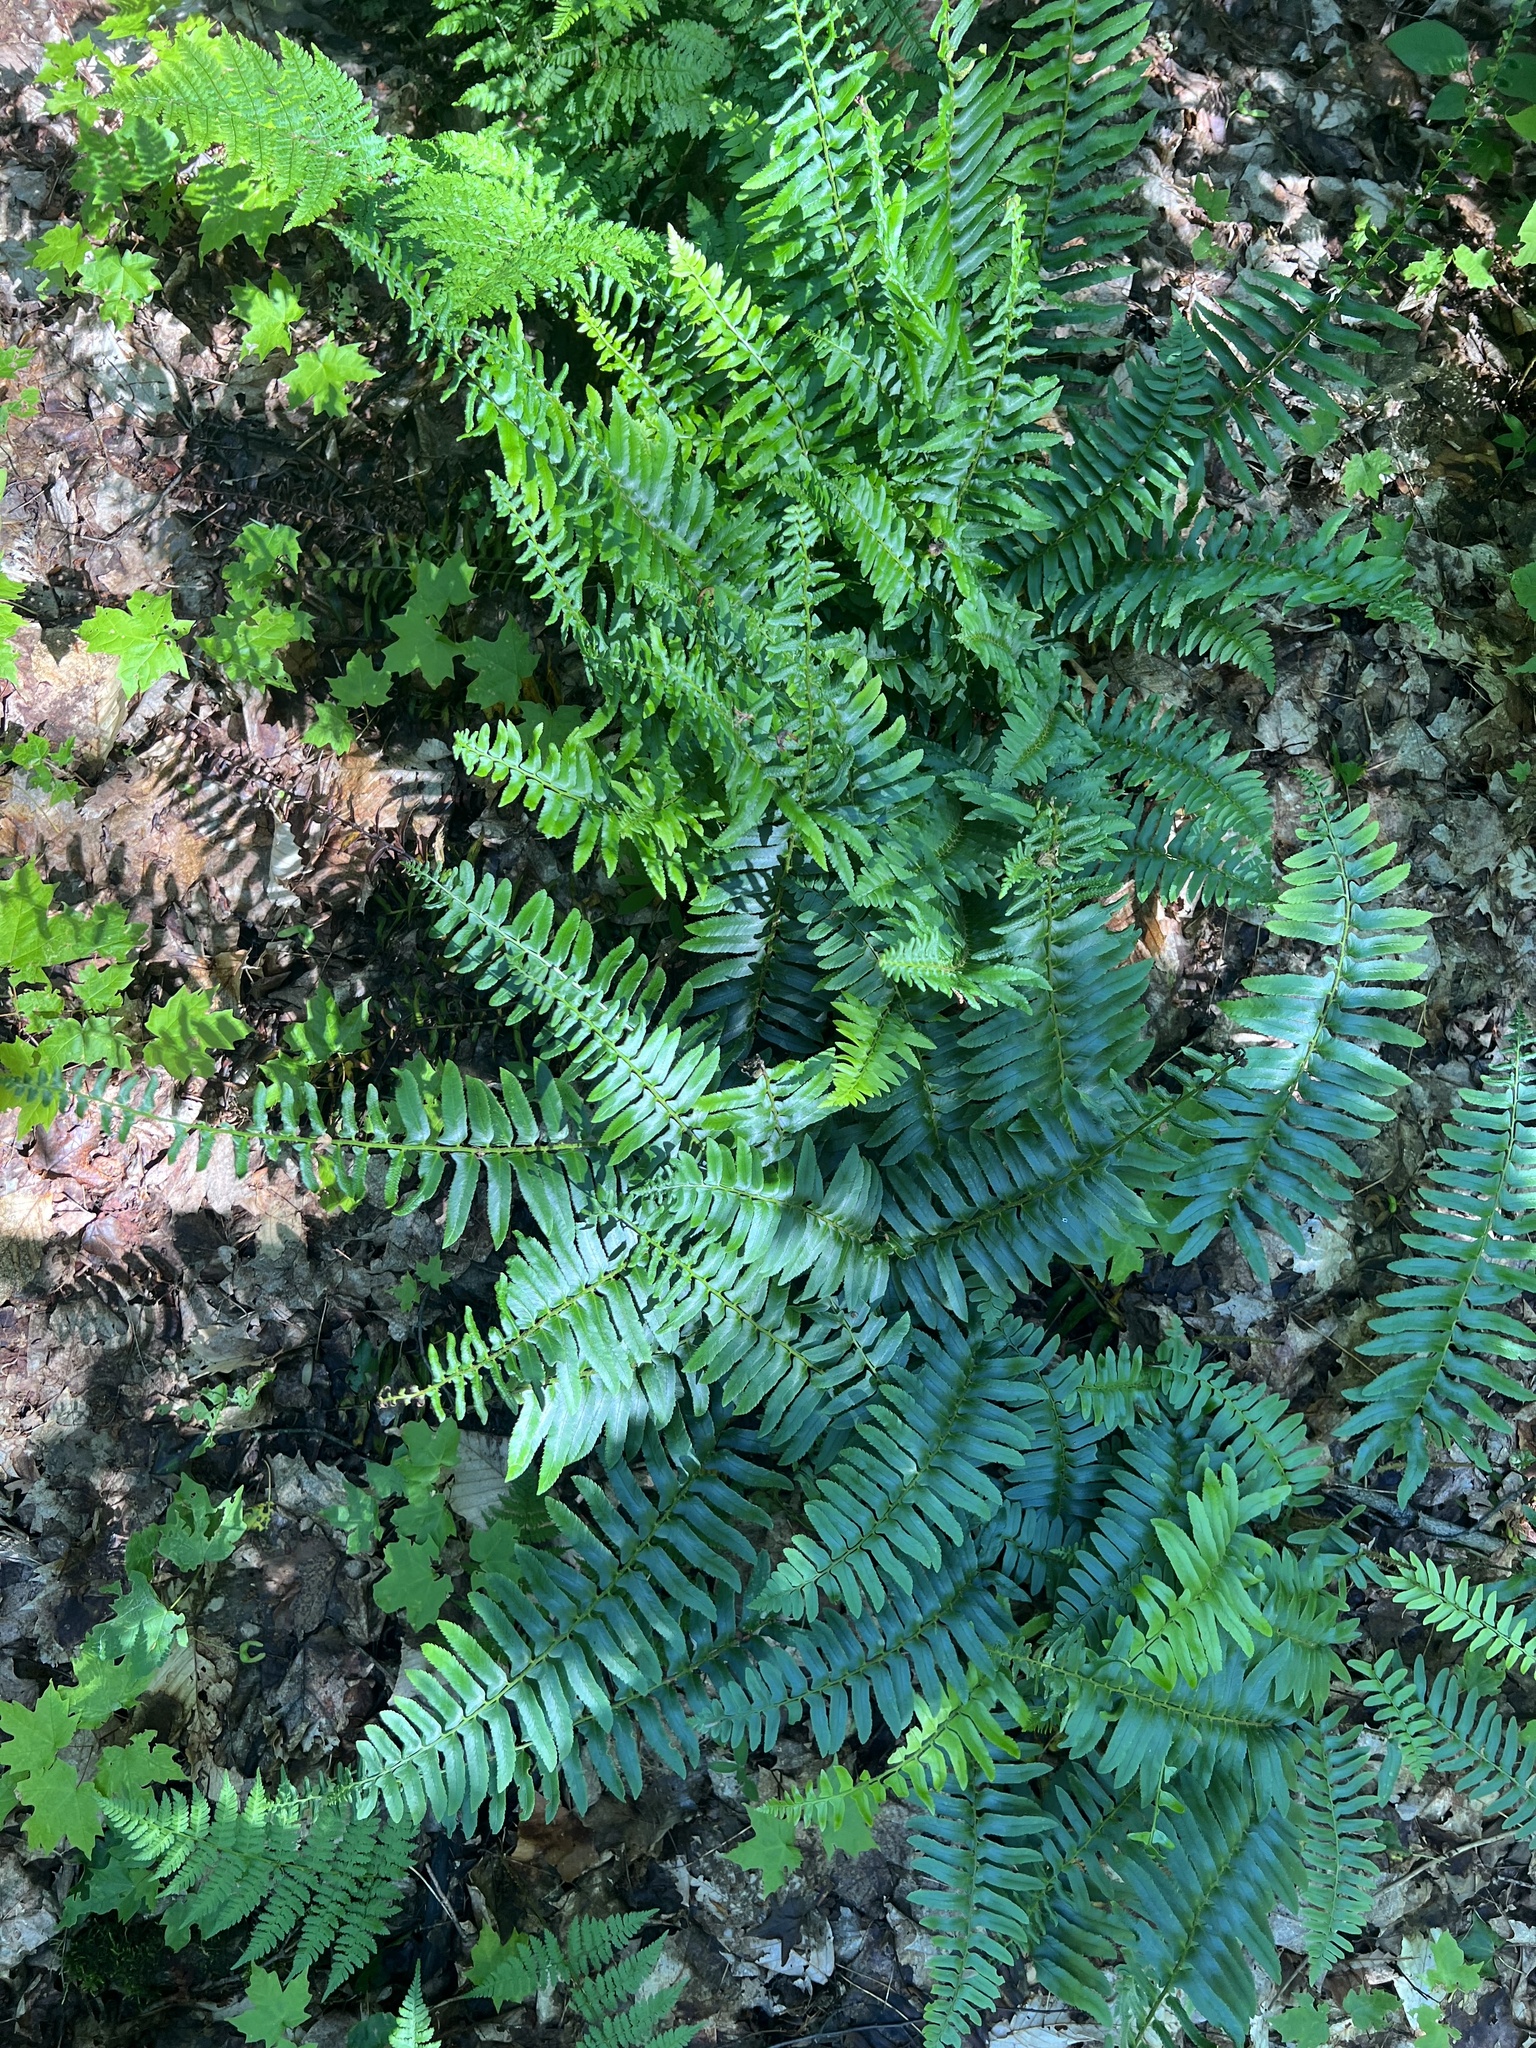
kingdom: Plantae
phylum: Tracheophyta
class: Polypodiopsida
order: Polypodiales
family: Dryopteridaceae
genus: Polystichum
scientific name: Polystichum acrostichoides
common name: Christmas fern
